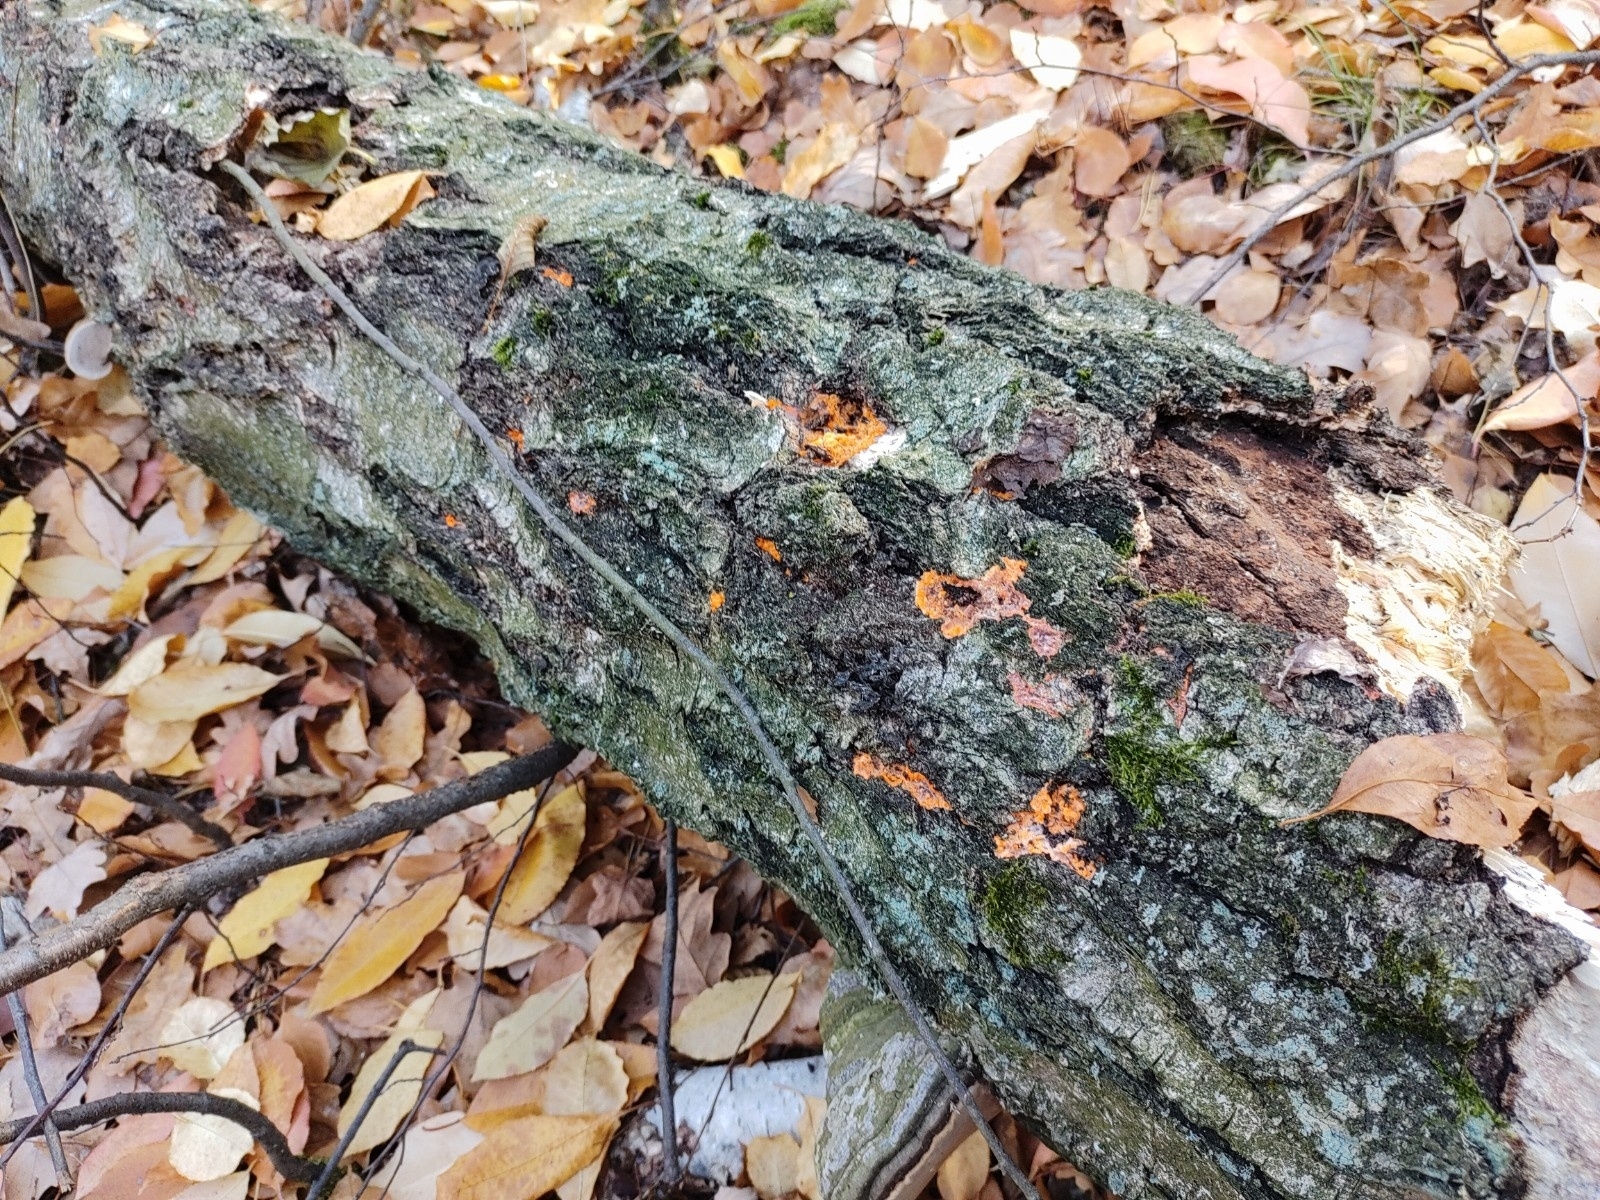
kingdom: Fungi
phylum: Basidiomycota
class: Agaricomycetes
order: Polyporales
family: Meruliaceae
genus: Phlebia
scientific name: Phlebia radiata
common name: Wrinkled crust
